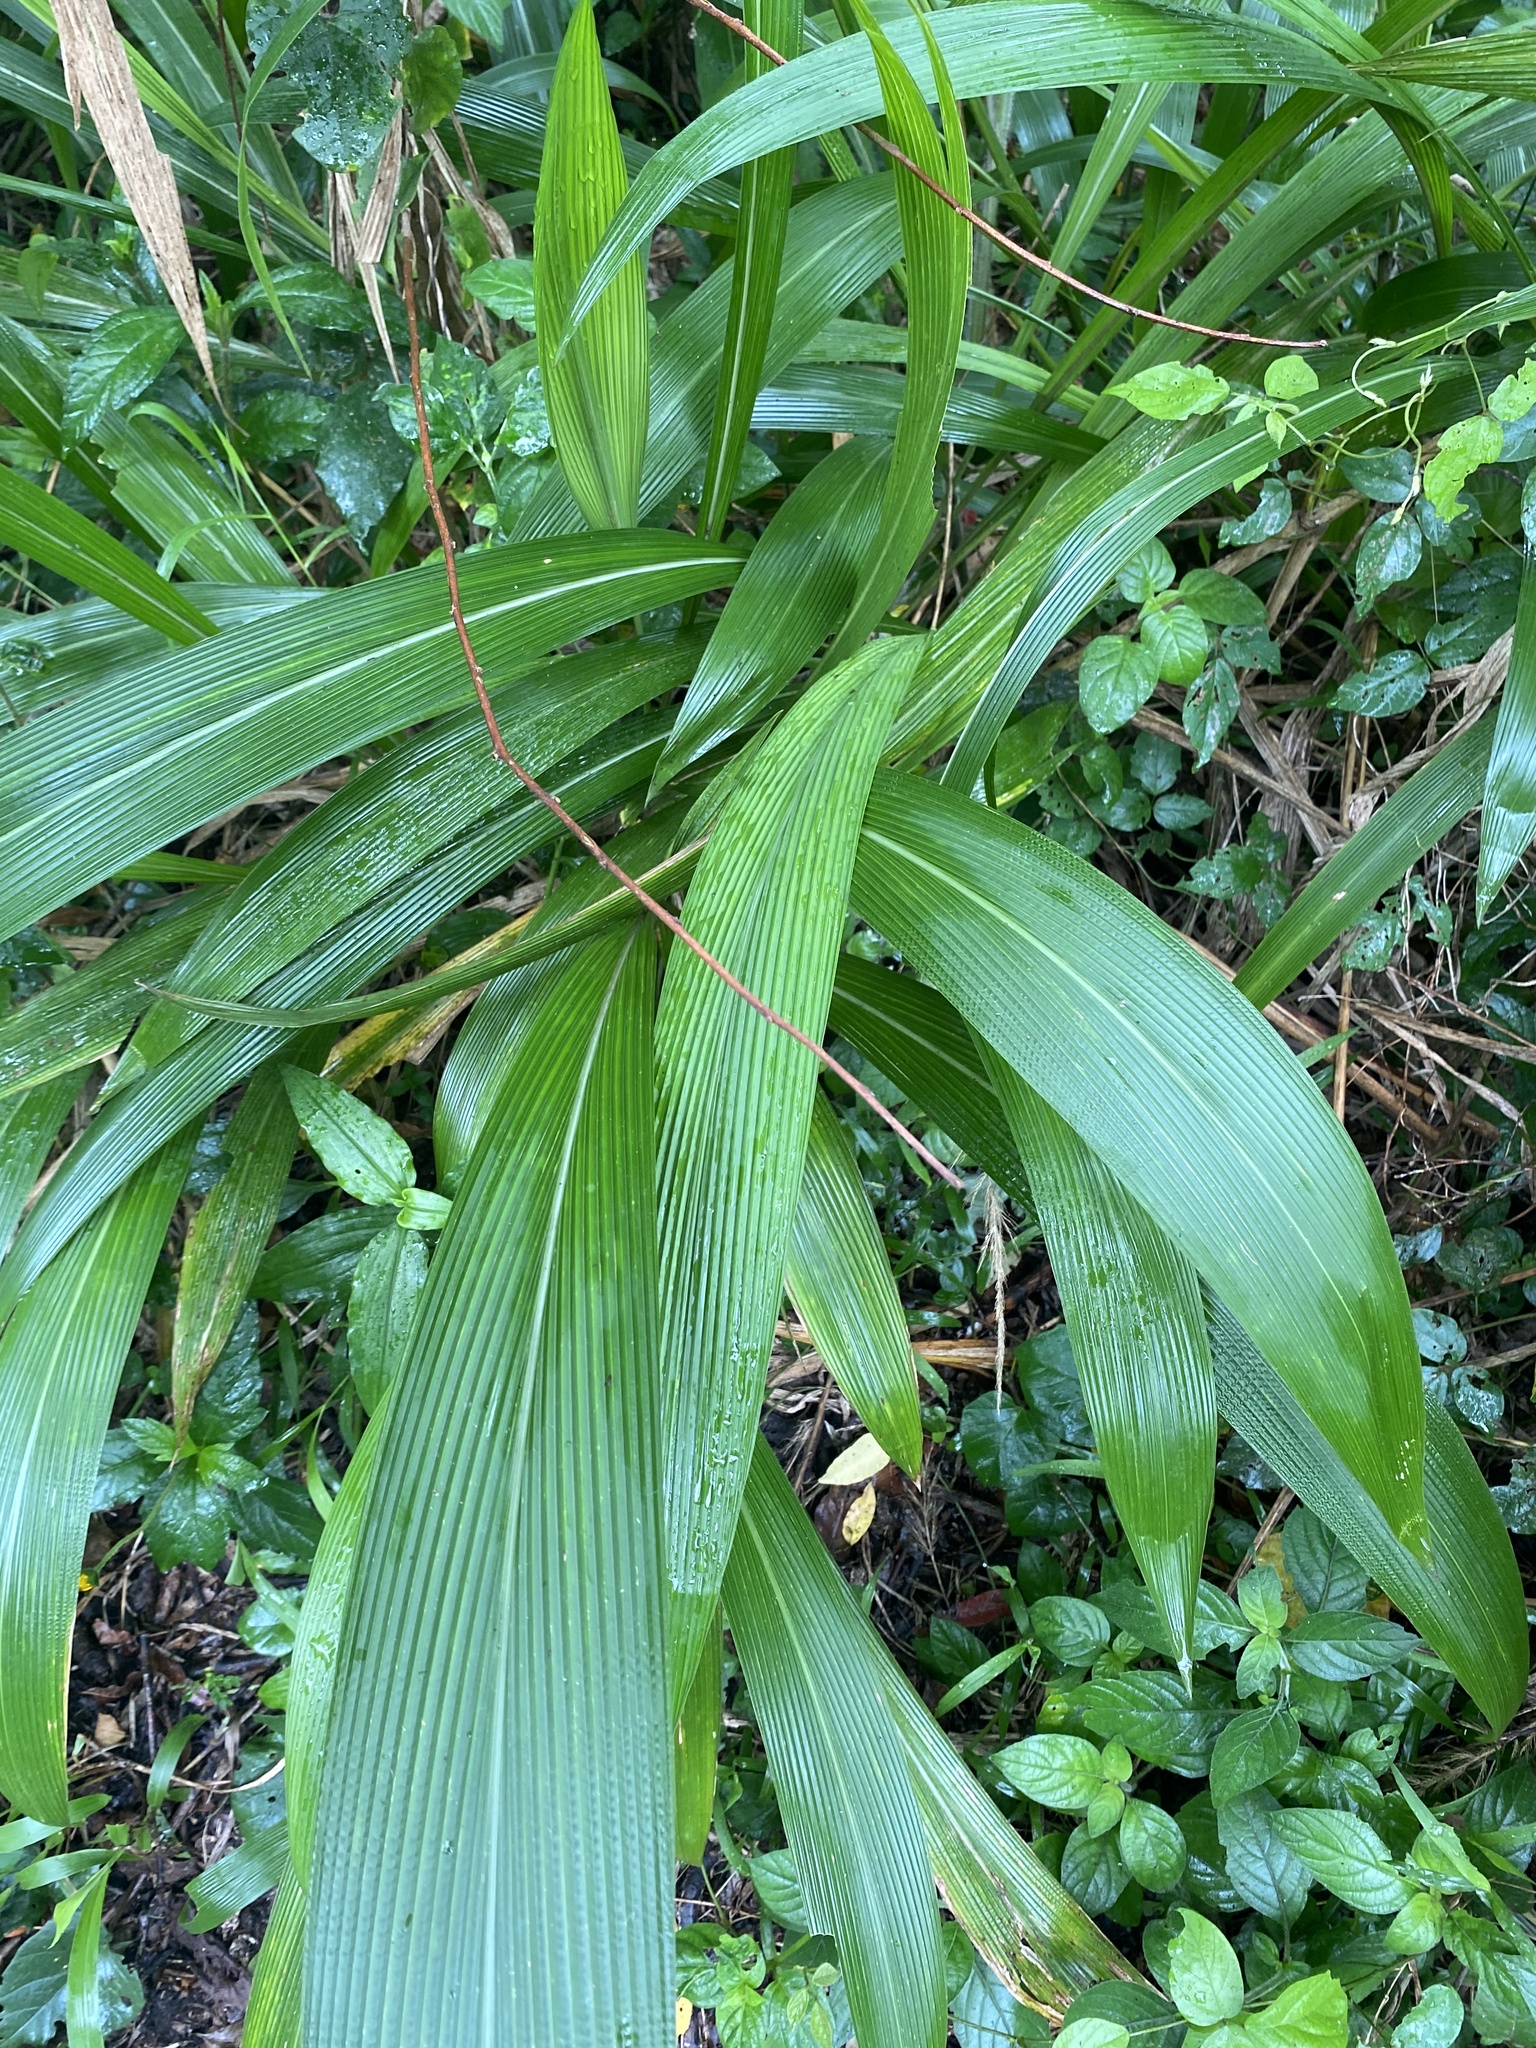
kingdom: Plantae
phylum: Tracheophyta
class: Liliopsida
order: Poales
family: Poaceae
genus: Setaria
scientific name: Setaria megaphylla
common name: Bigleaf bristlegrass
